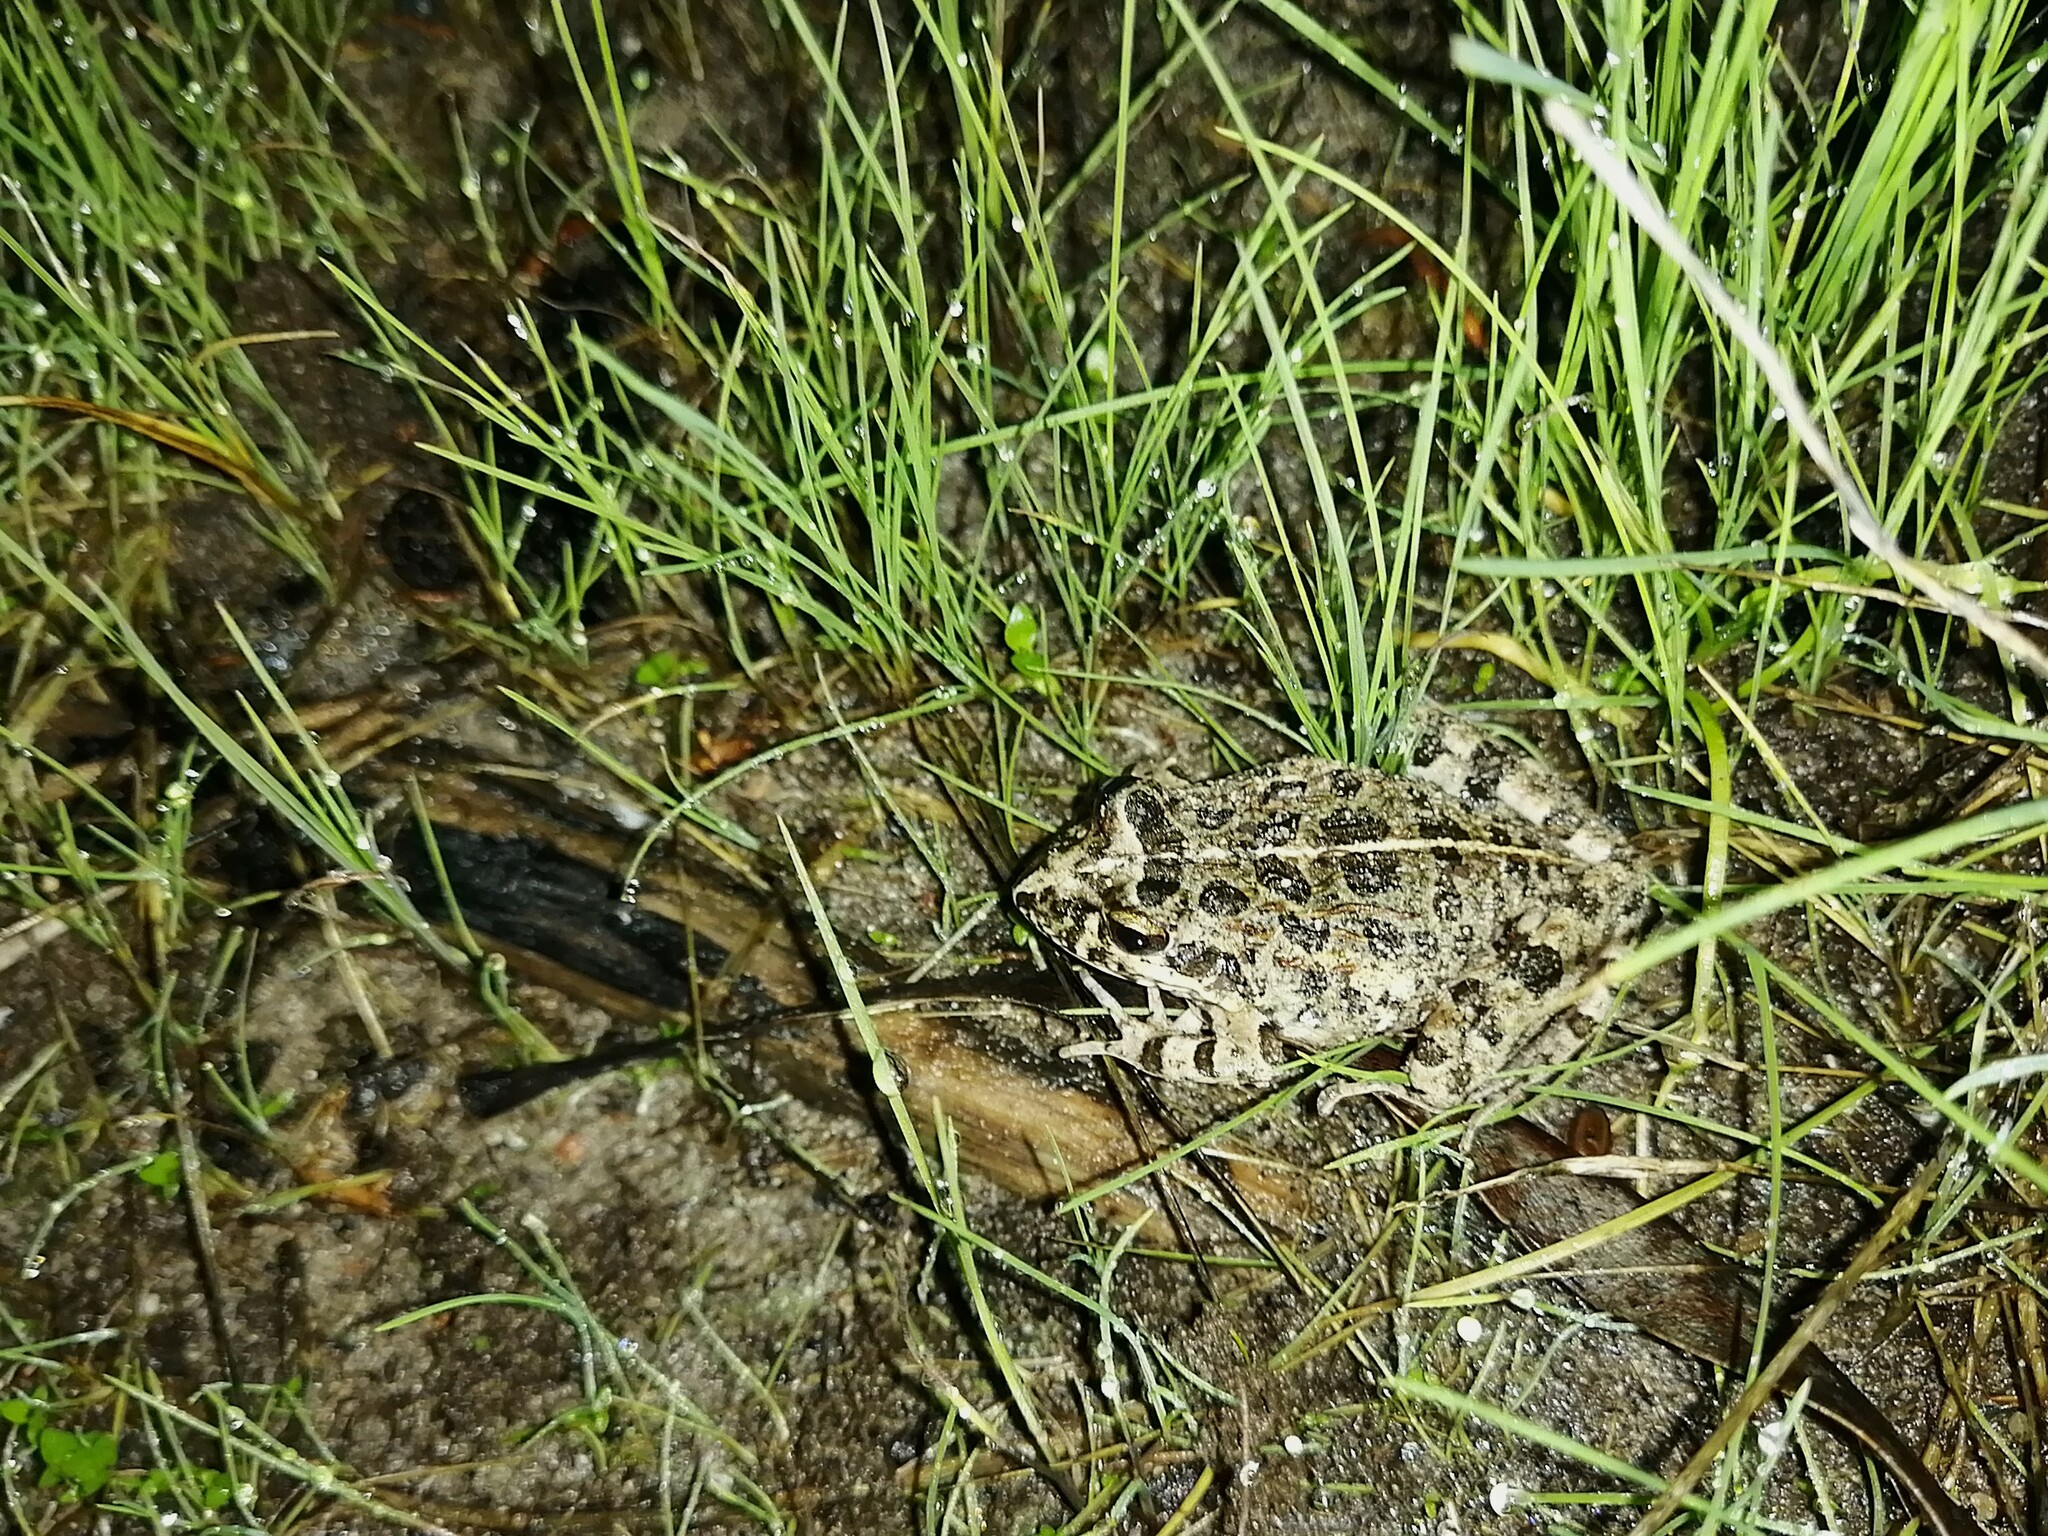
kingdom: Animalia
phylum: Chordata
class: Amphibia
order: Anura
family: Pyxicephalidae
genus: Strongylopus
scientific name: Strongylopus grayii
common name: Gray's stream frog
